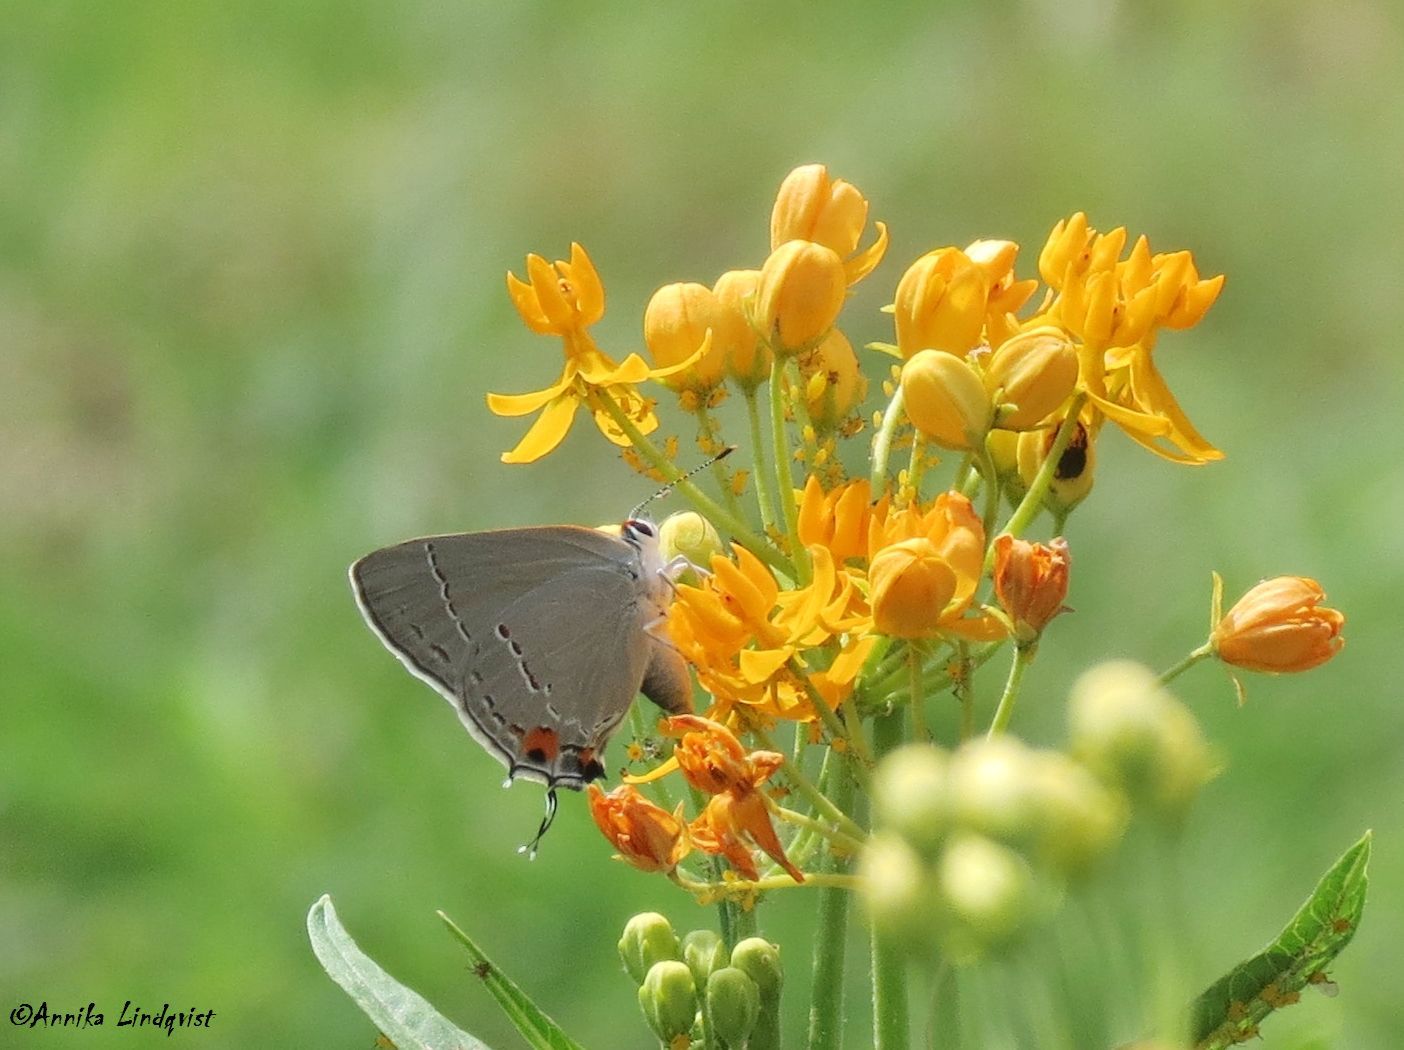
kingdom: Animalia
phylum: Arthropoda
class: Insecta
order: Lepidoptera
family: Lycaenidae
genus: Strymon
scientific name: Strymon melinus
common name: Gray hairstreak
